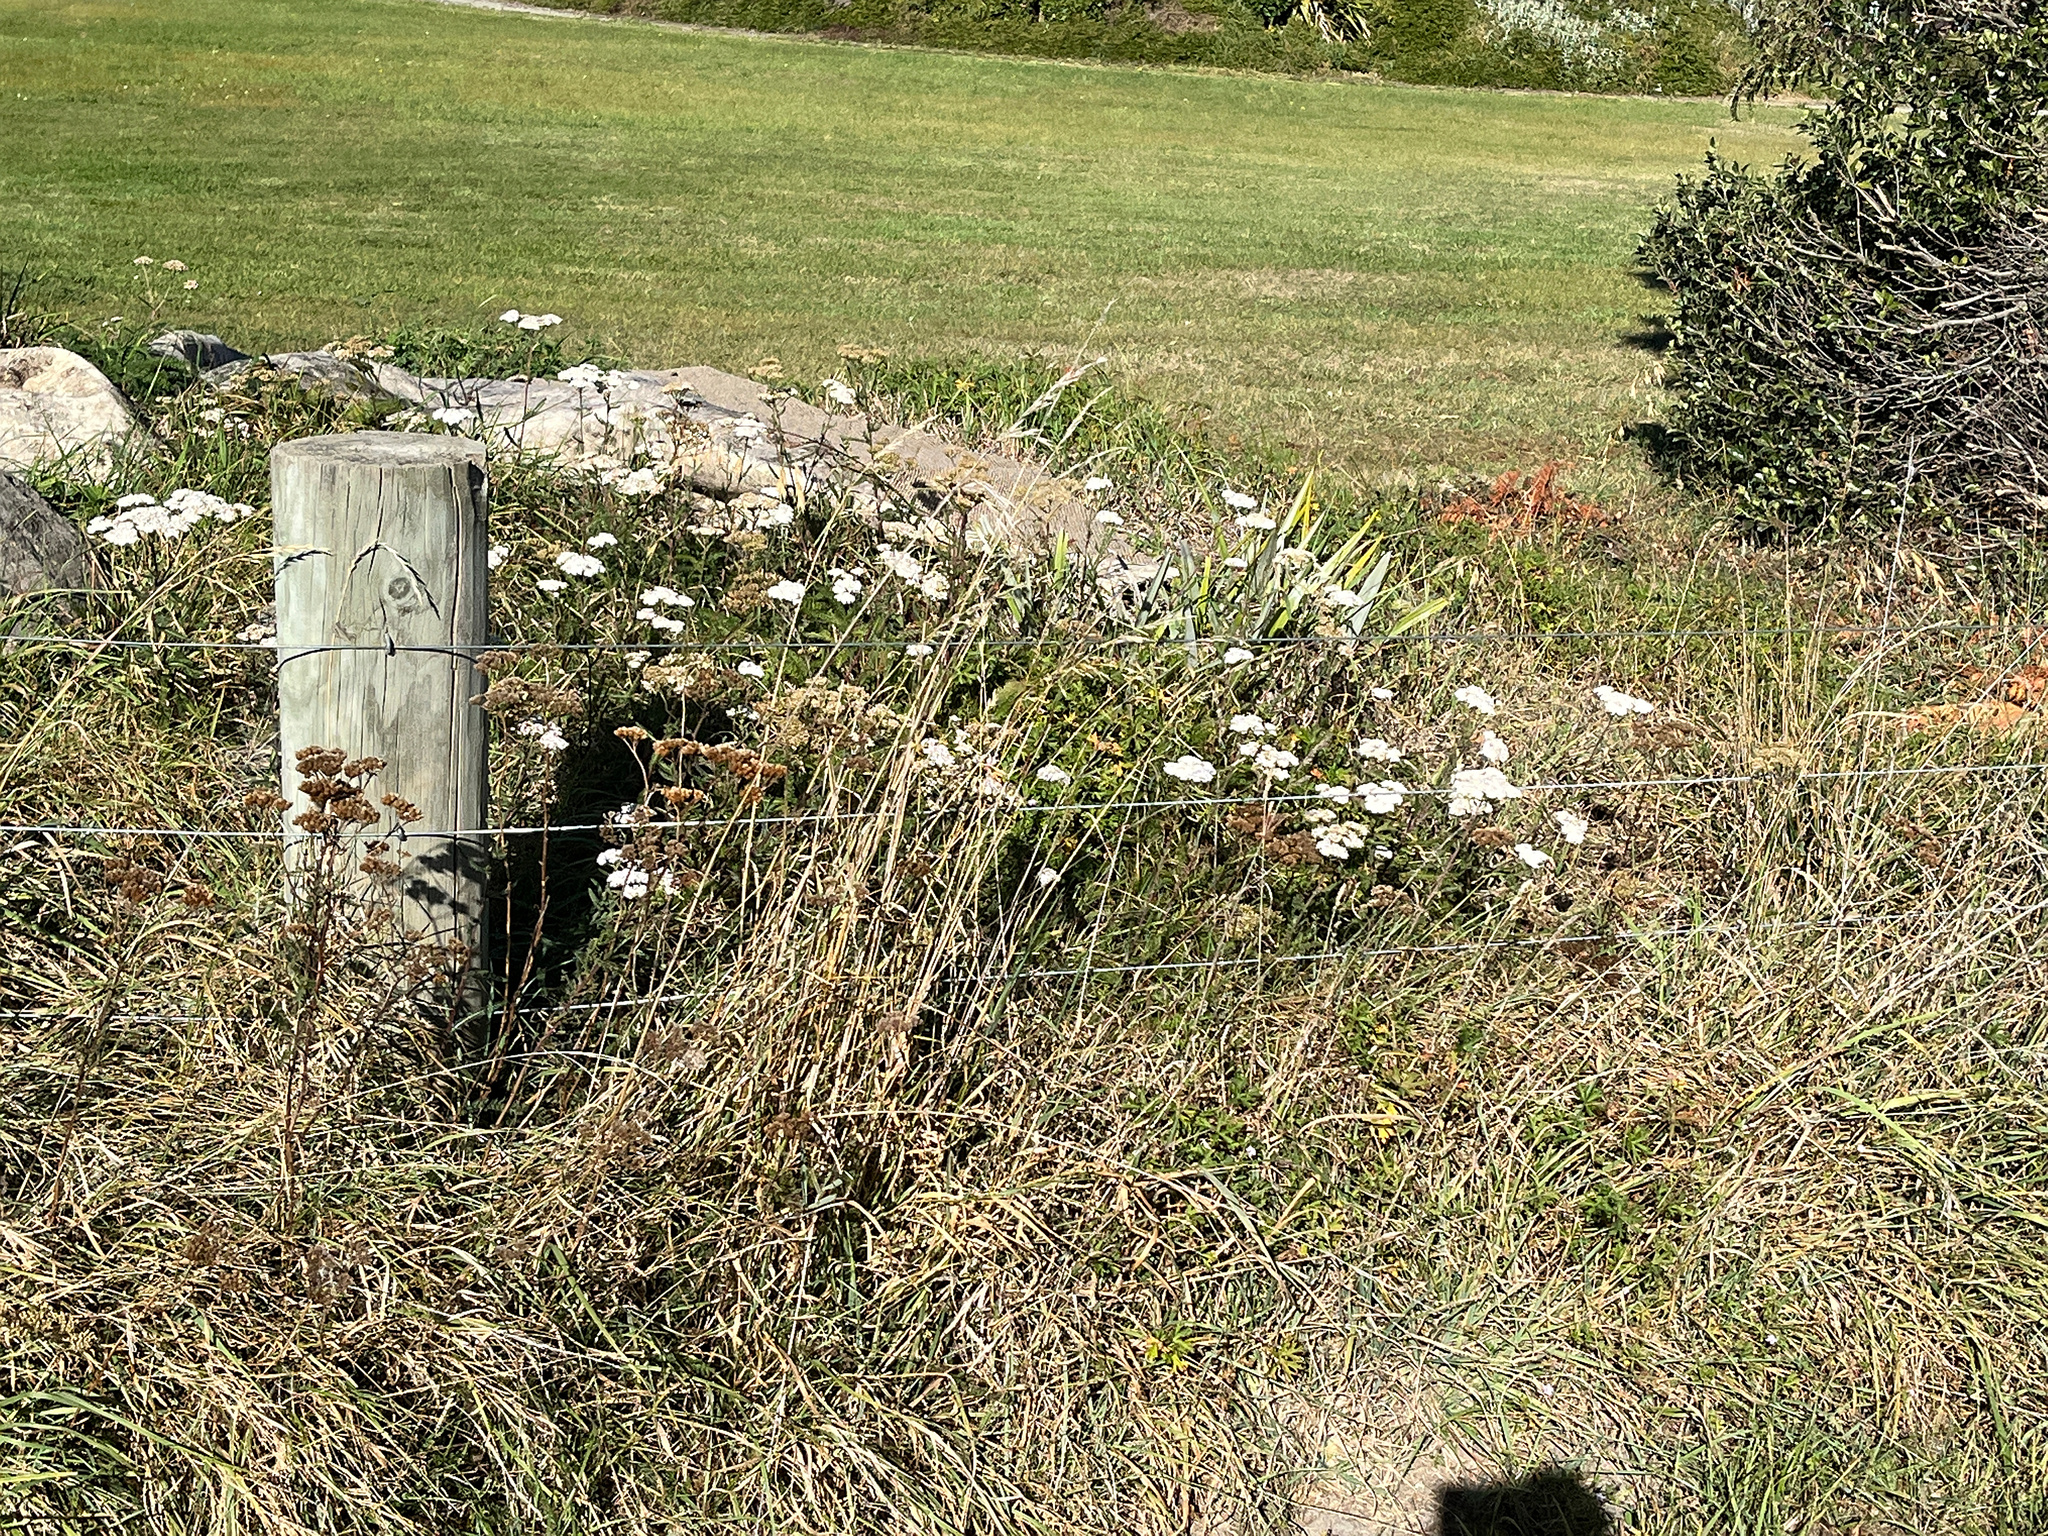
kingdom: Plantae
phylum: Tracheophyta
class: Magnoliopsida
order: Asterales
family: Asteraceae
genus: Achillea
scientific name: Achillea millefolium
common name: Yarrow
